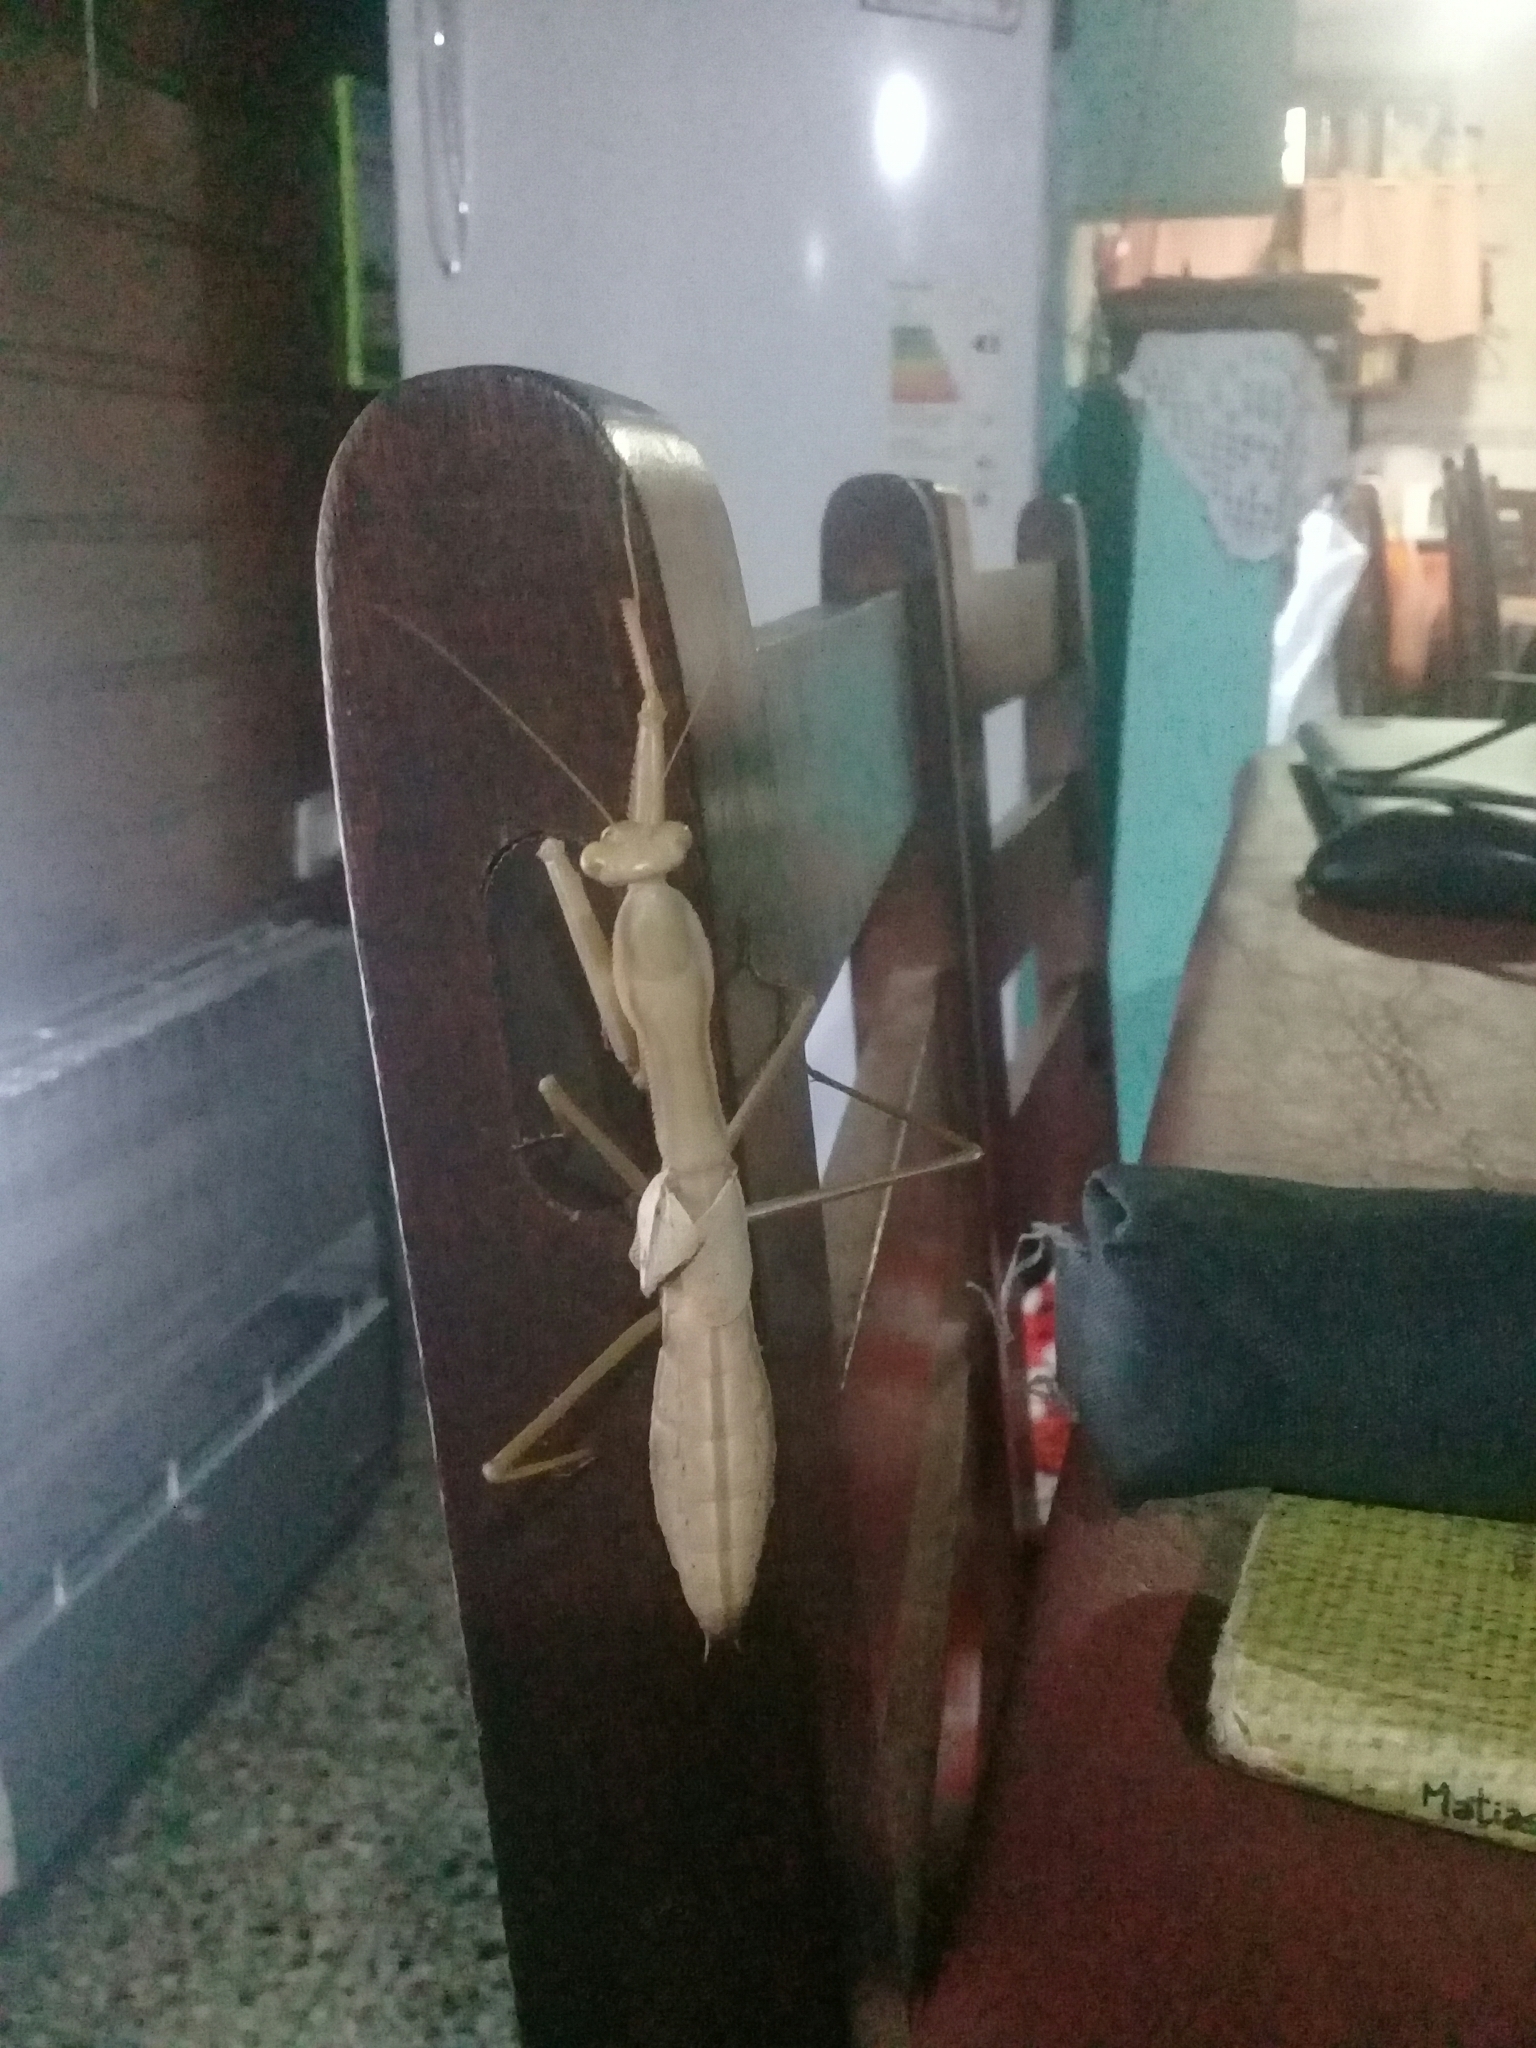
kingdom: Animalia
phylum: Arthropoda
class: Insecta
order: Mantodea
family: Coptopterygidae
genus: Coptopteryx
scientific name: Coptopteryx argentina
